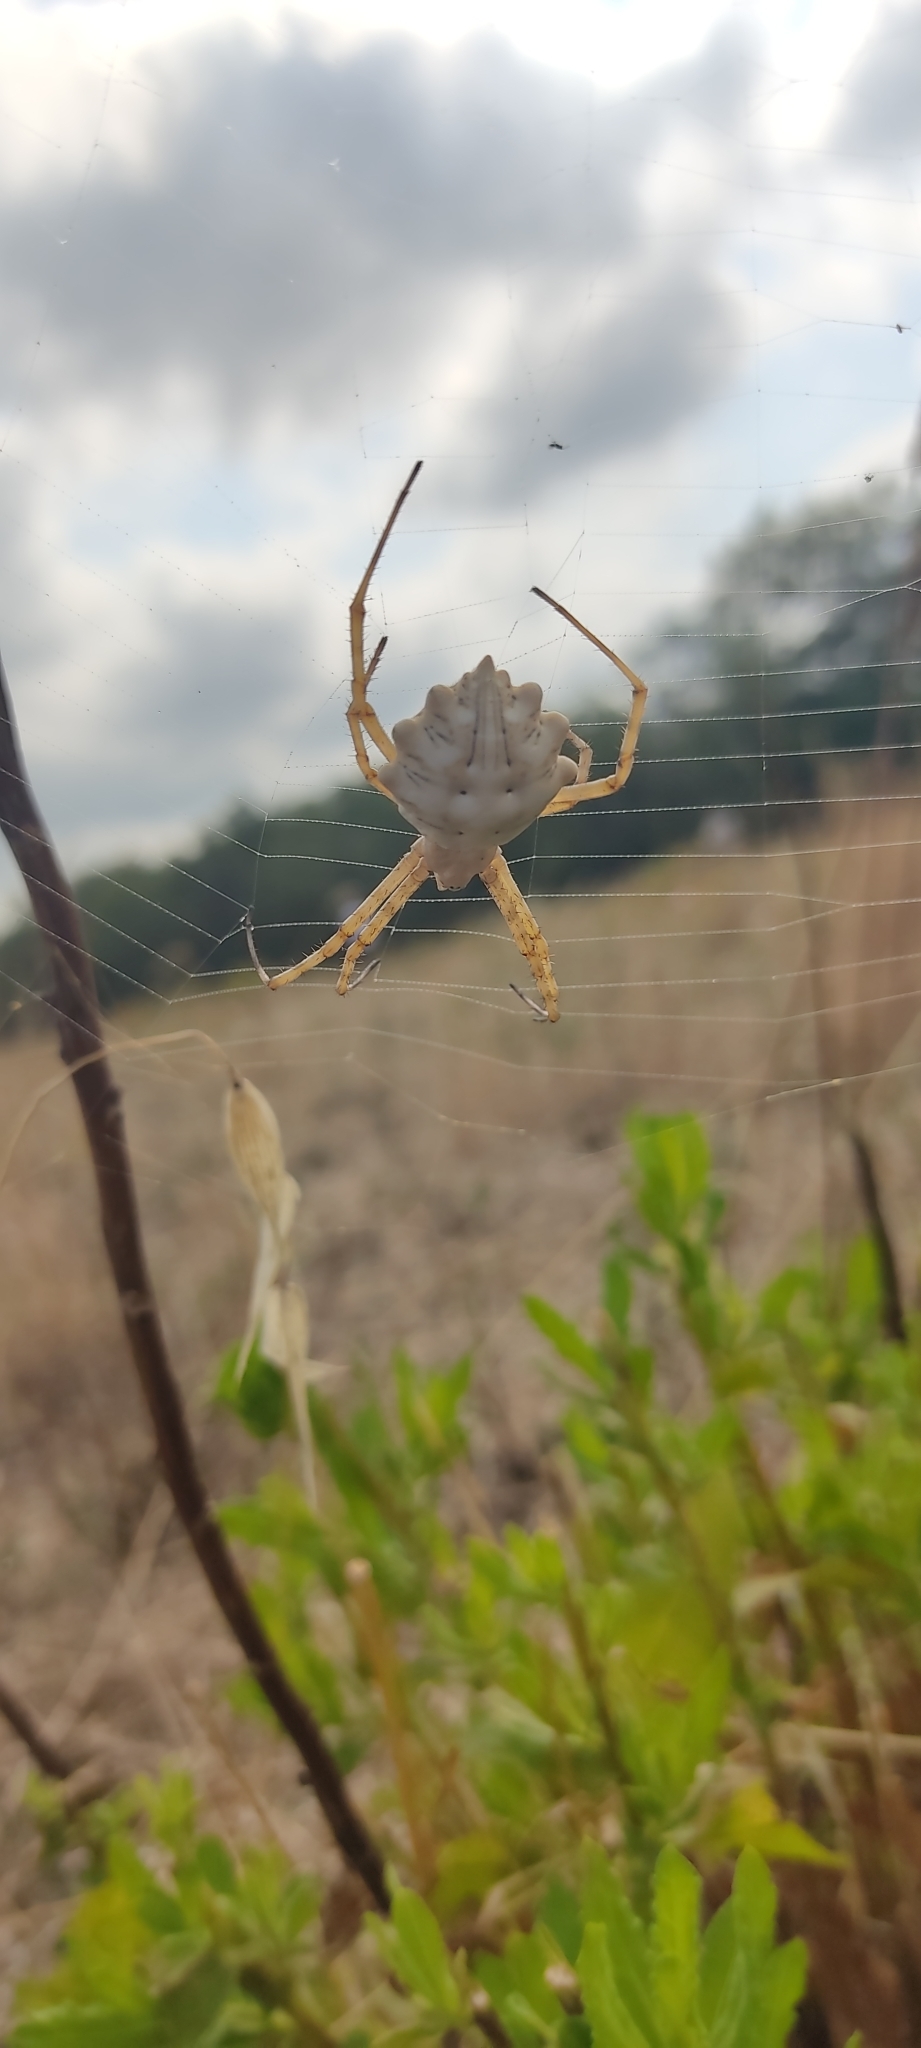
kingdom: Animalia
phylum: Arthropoda
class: Arachnida
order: Araneae
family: Araneidae
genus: Argiope
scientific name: Argiope lobata
